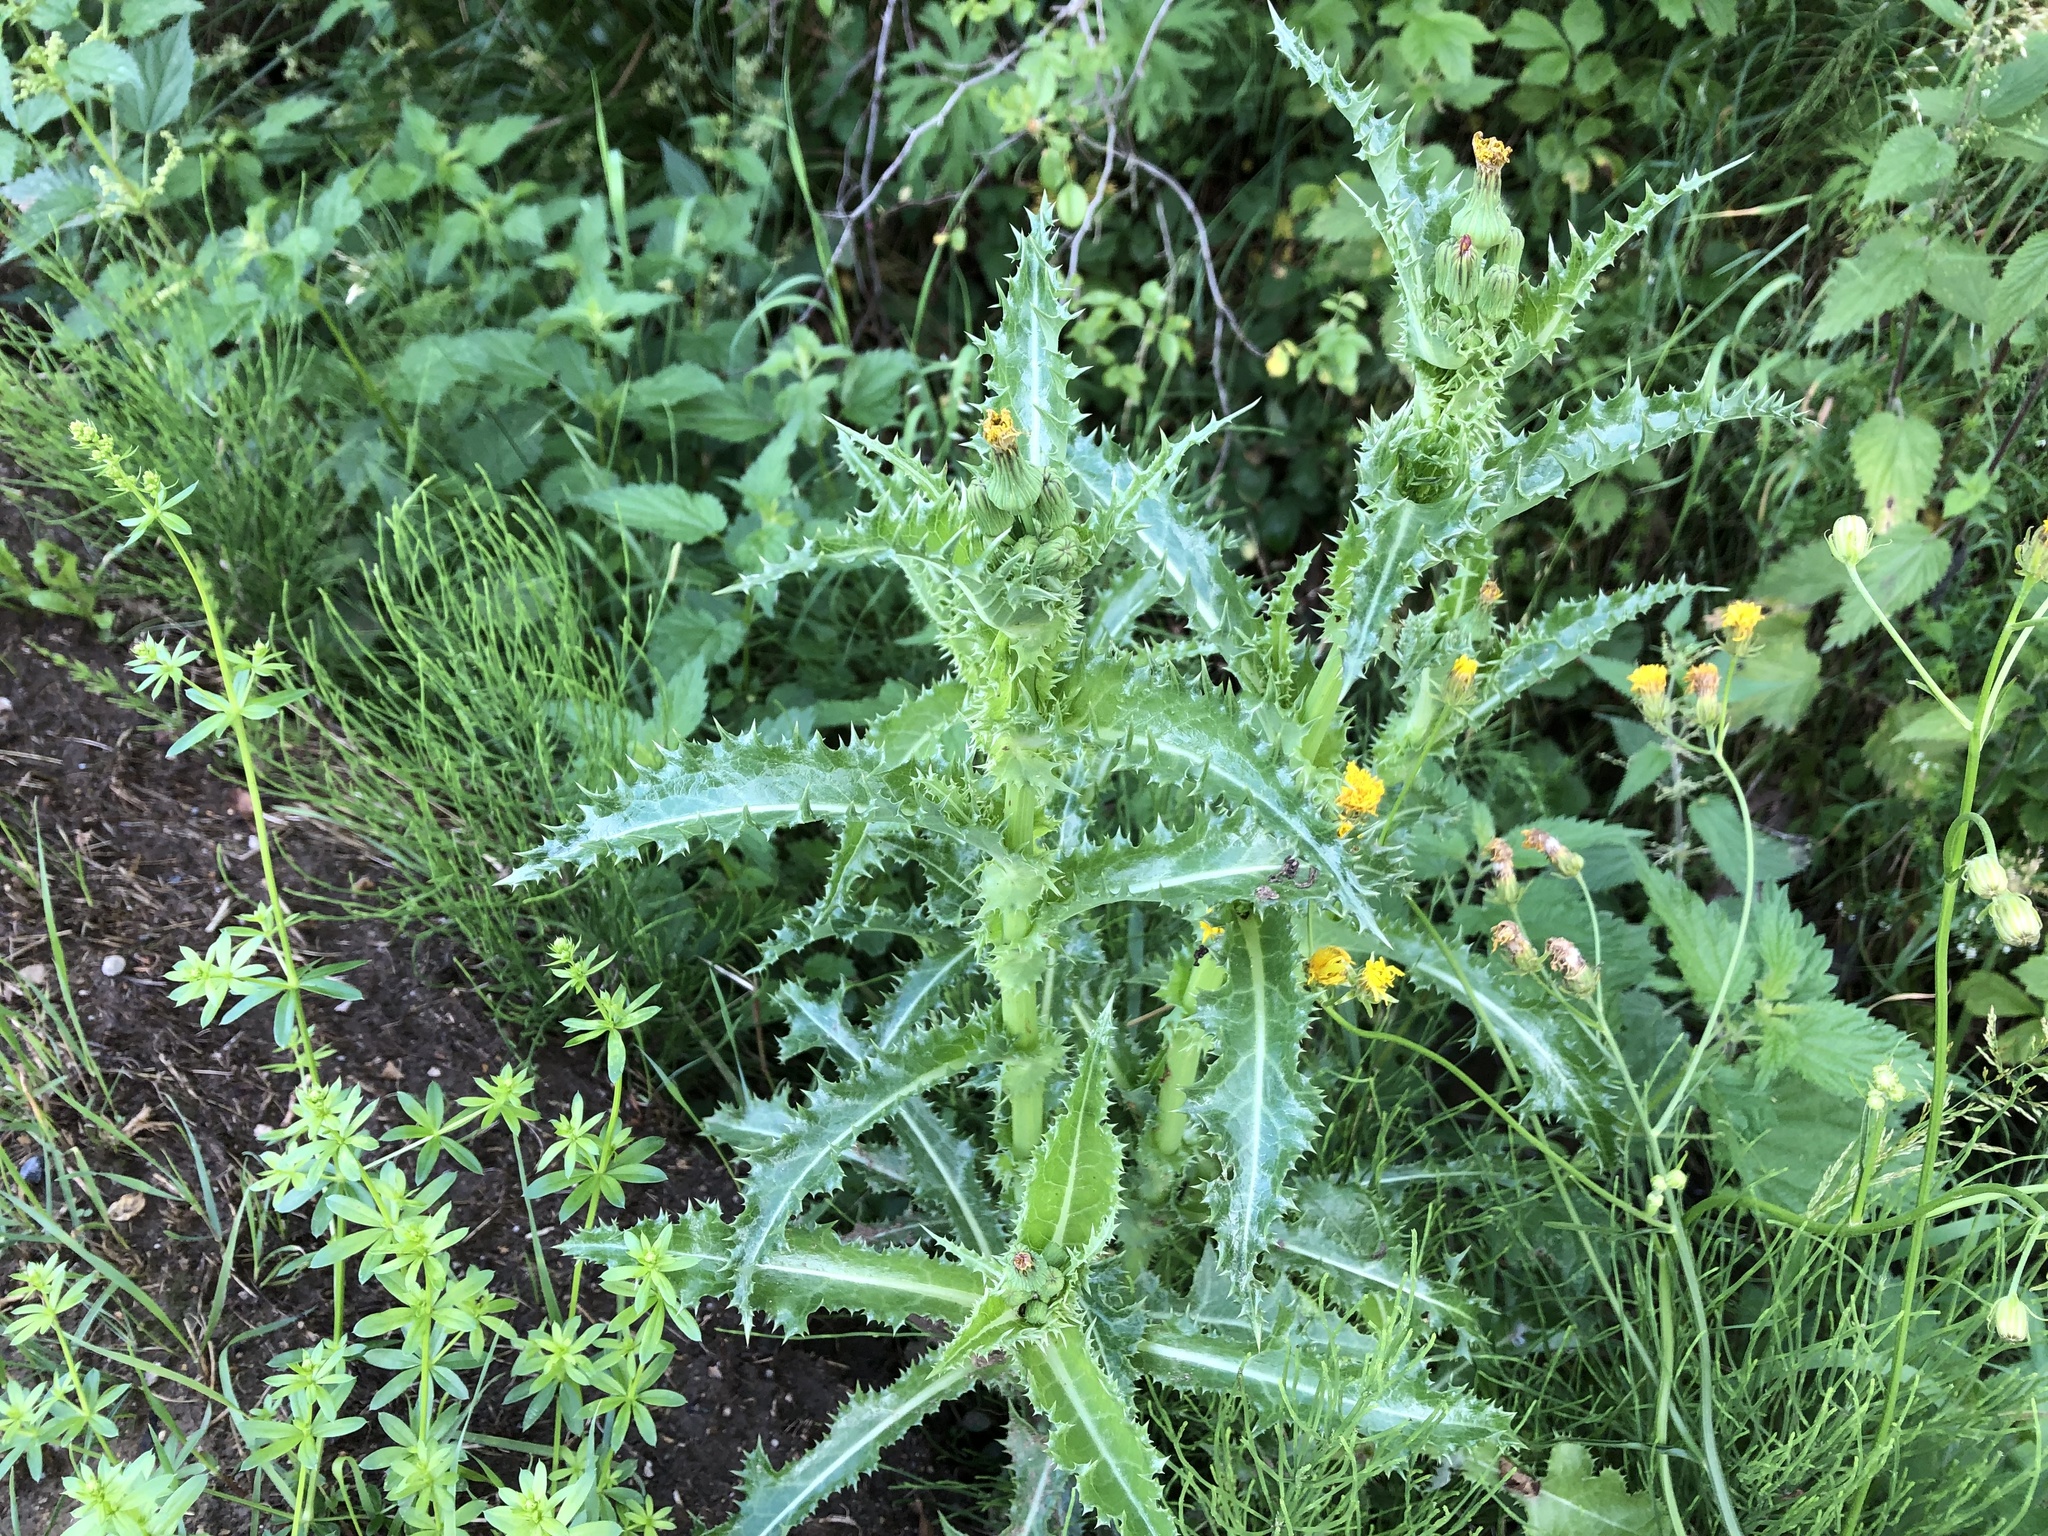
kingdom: Plantae
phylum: Tracheophyta
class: Magnoliopsida
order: Asterales
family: Asteraceae
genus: Sonchus
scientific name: Sonchus asper
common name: Prickly sow-thistle
